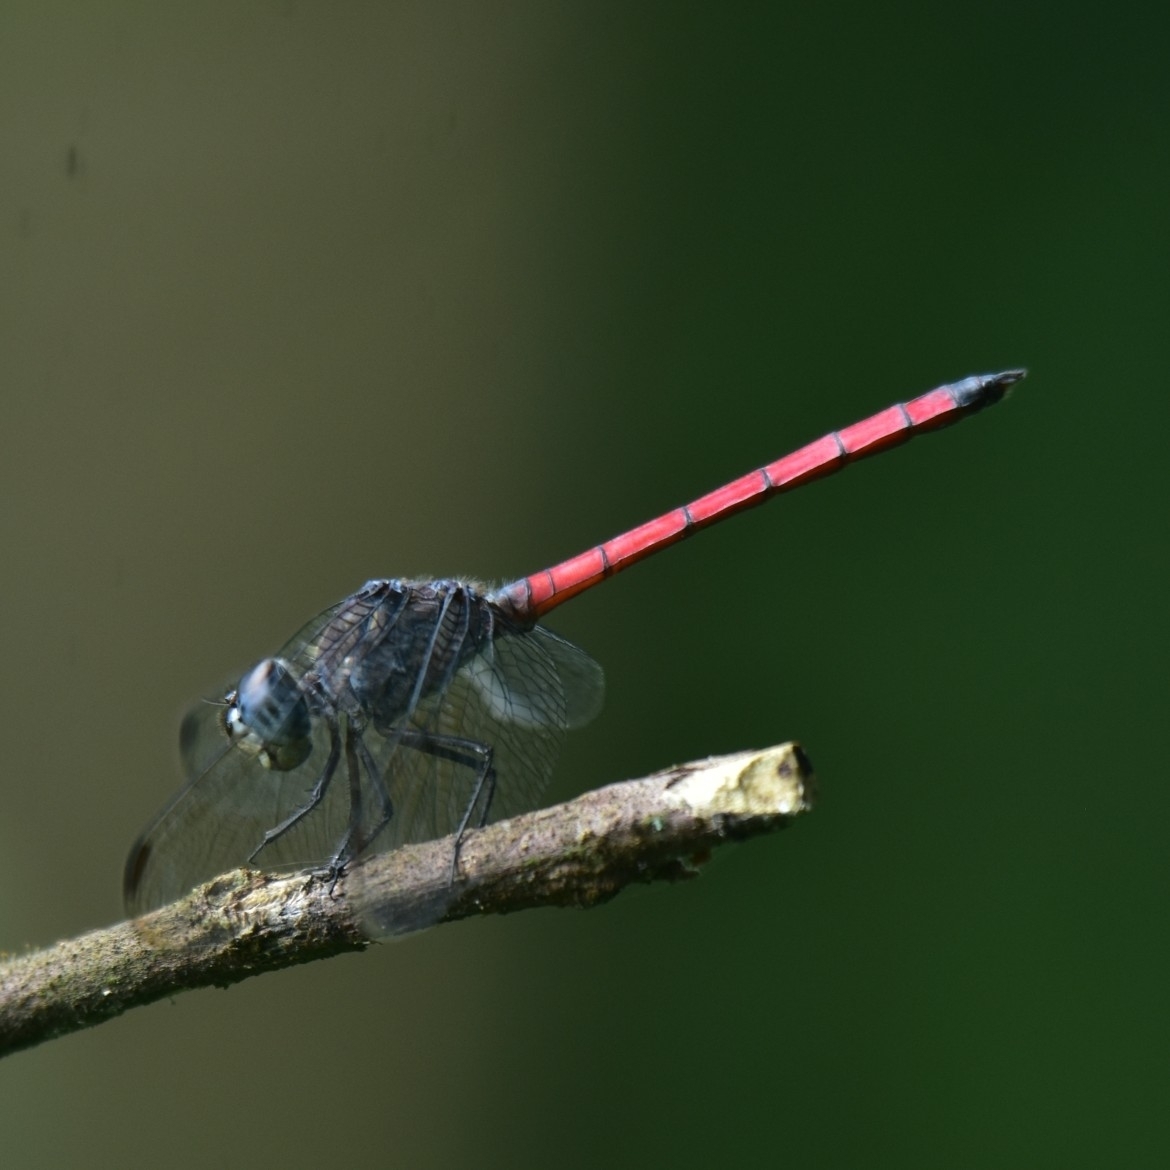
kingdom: Animalia
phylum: Arthropoda
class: Insecta
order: Odonata
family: Libellulidae
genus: Lathrecista
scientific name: Lathrecista asiatica
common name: Scarlet grenadier
